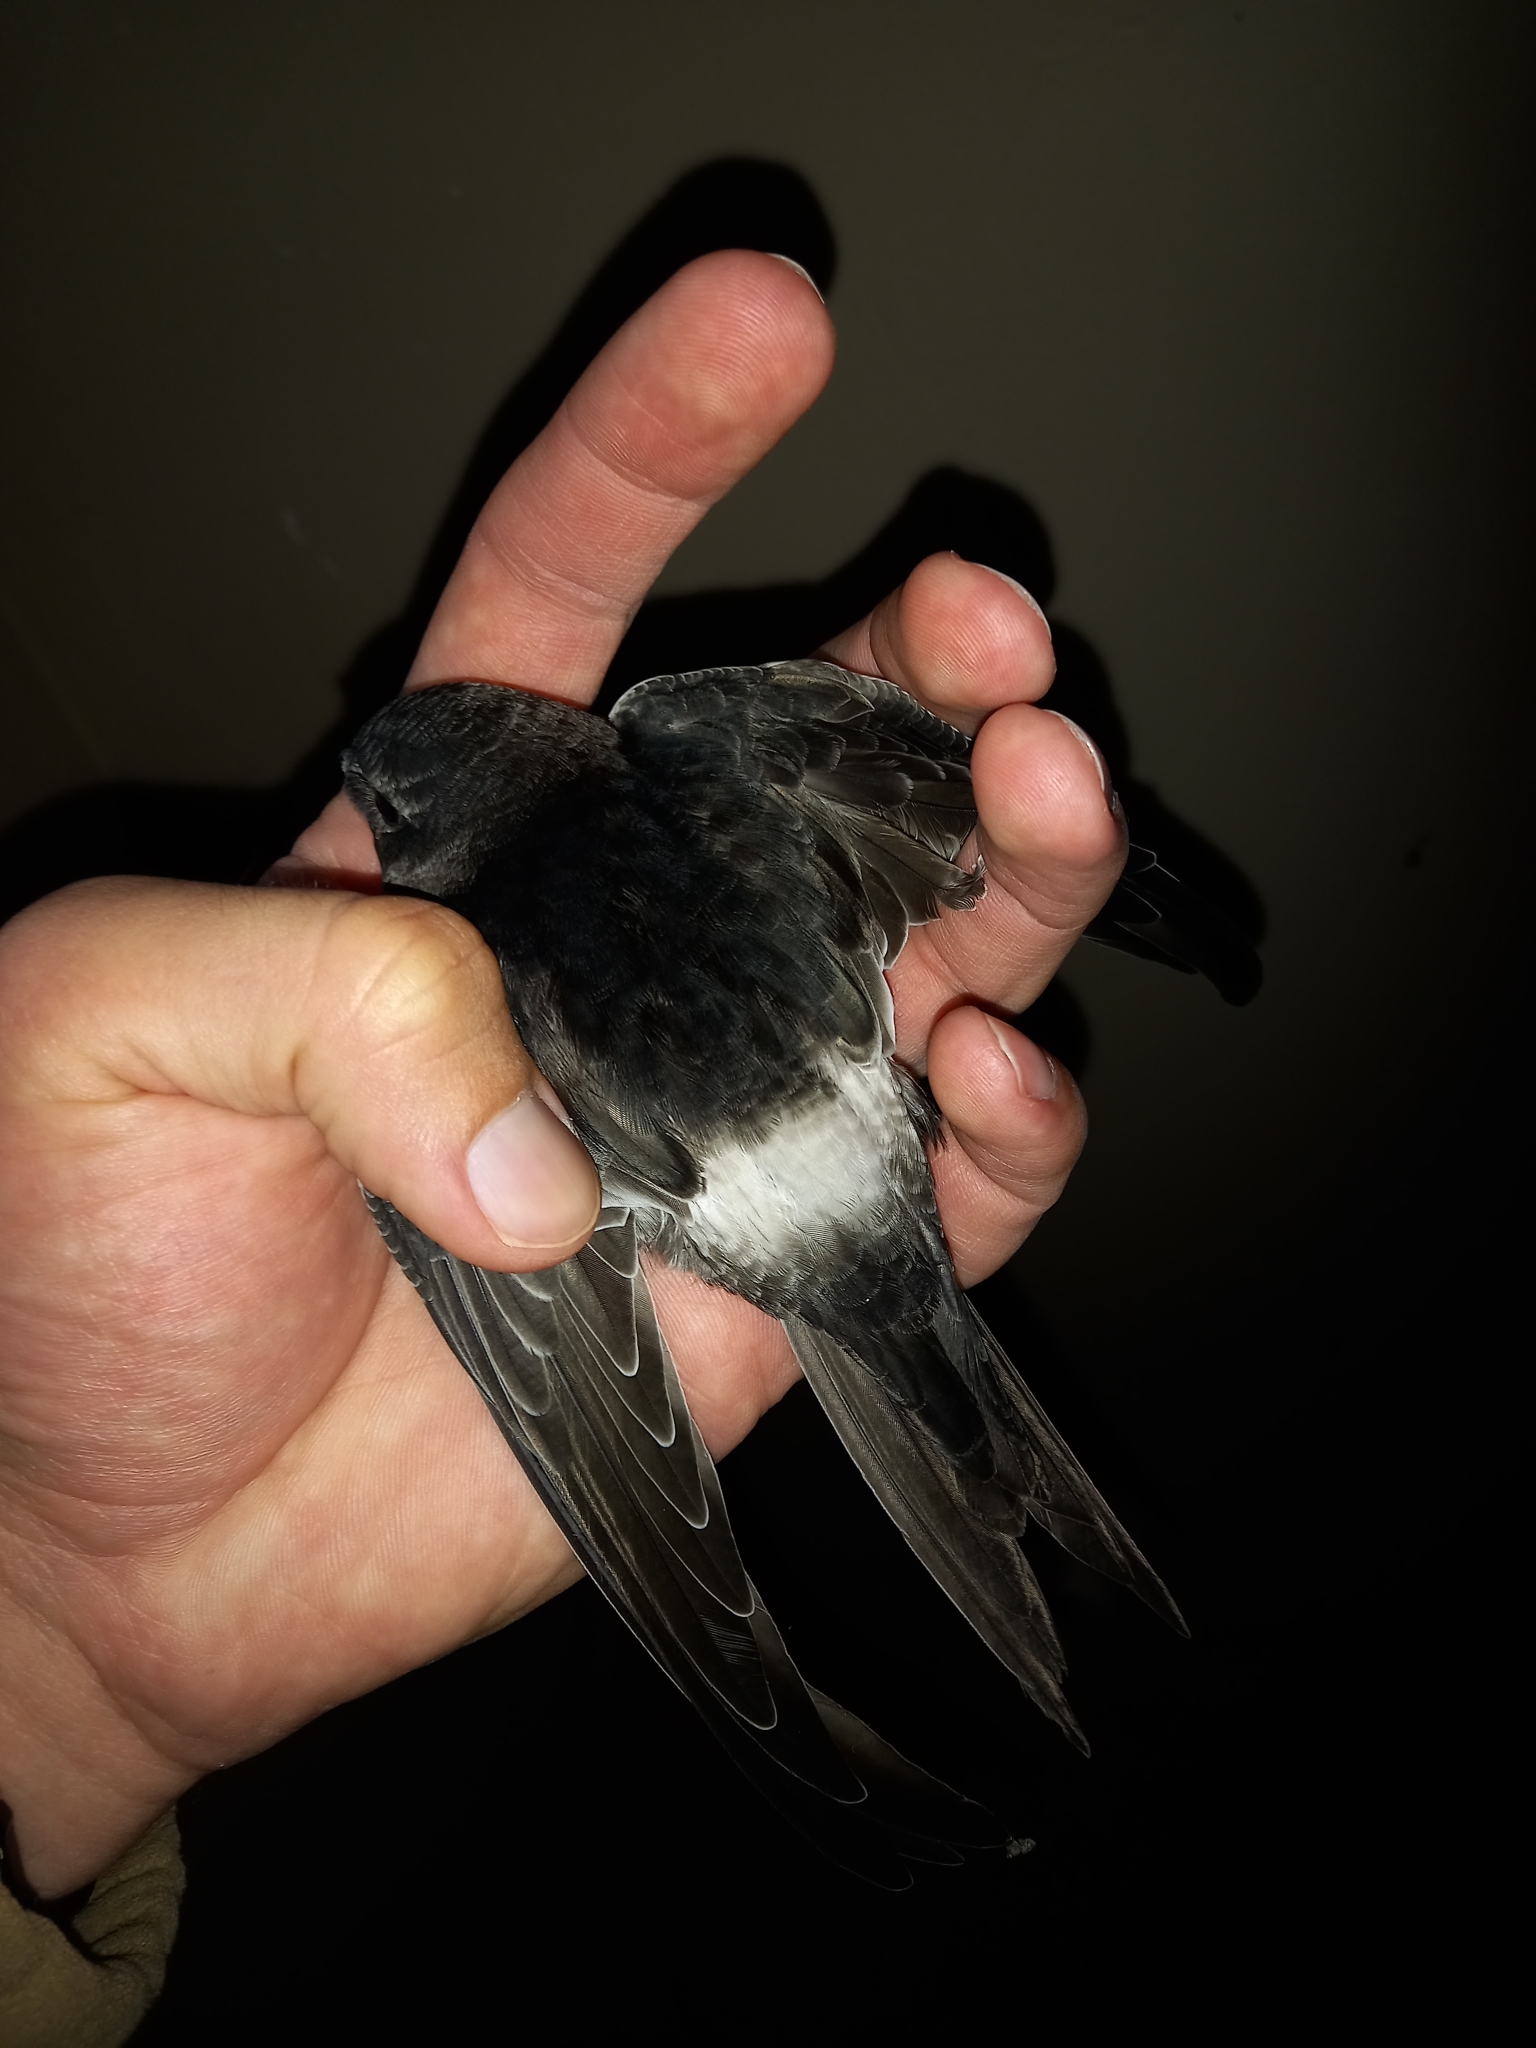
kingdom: Animalia
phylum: Chordata
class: Aves
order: Apodiformes
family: Apodidae
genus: Apus
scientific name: Apus caffer
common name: White-rumped swift
